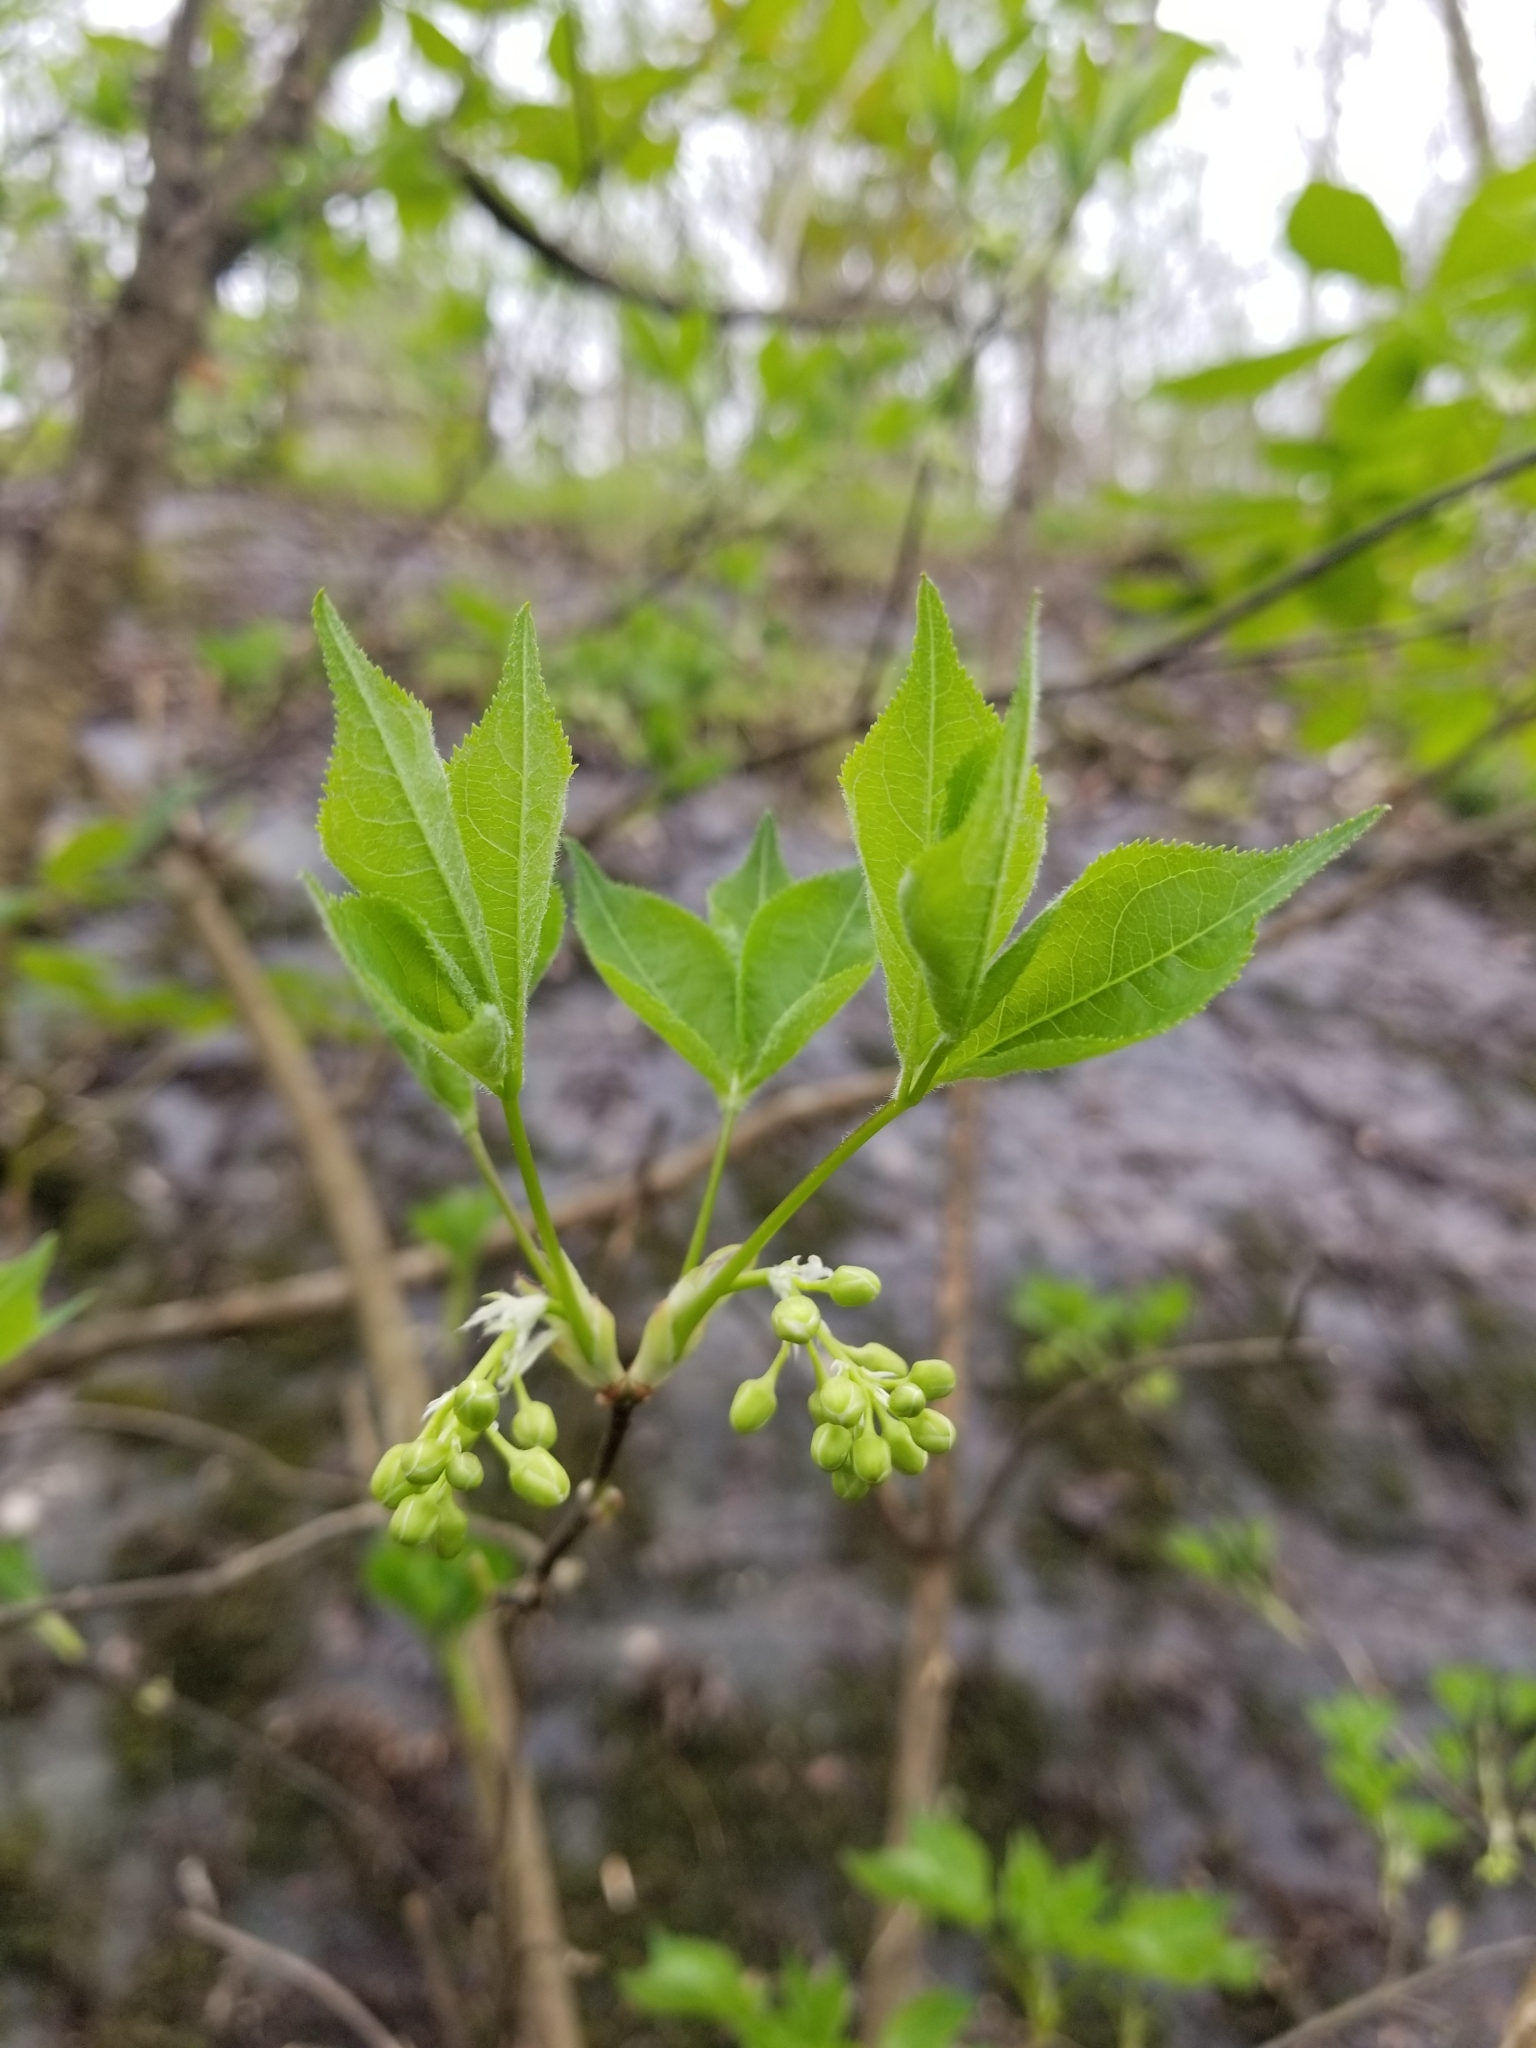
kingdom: Plantae
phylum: Tracheophyta
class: Magnoliopsida
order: Crossosomatales
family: Staphyleaceae
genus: Staphylea
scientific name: Staphylea trifolia
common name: American bladdernut
